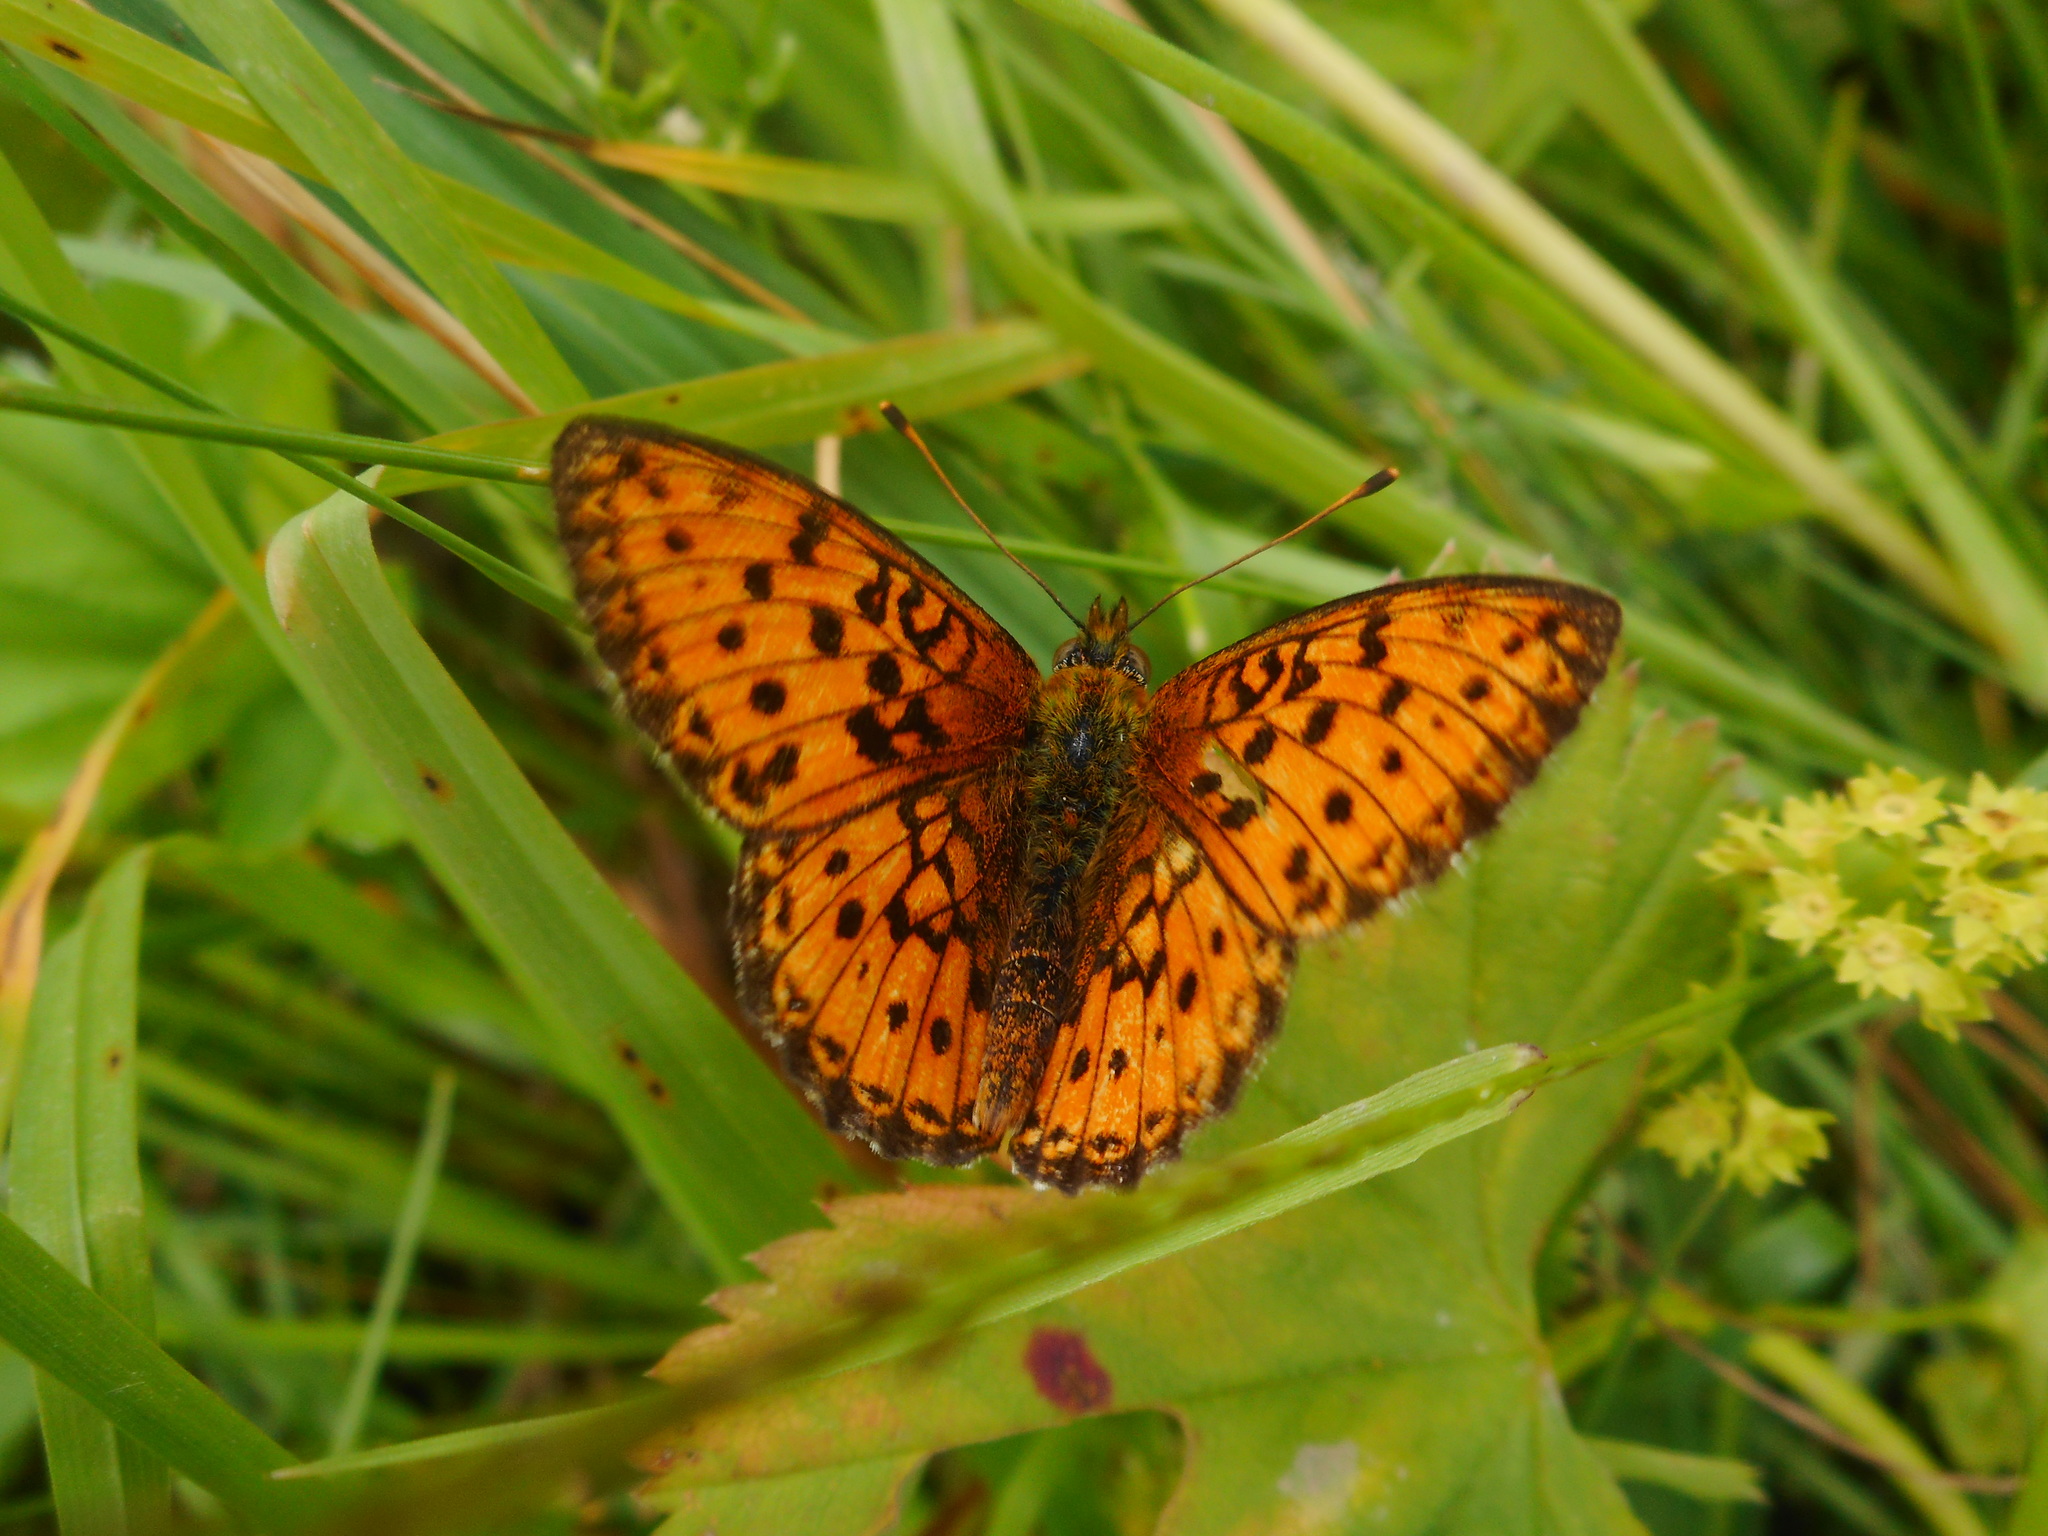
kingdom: Animalia
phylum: Arthropoda
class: Insecta
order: Lepidoptera
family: Nymphalidae
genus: Brenthis
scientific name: Brenthis ino
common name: Lesser marbled fritillary
